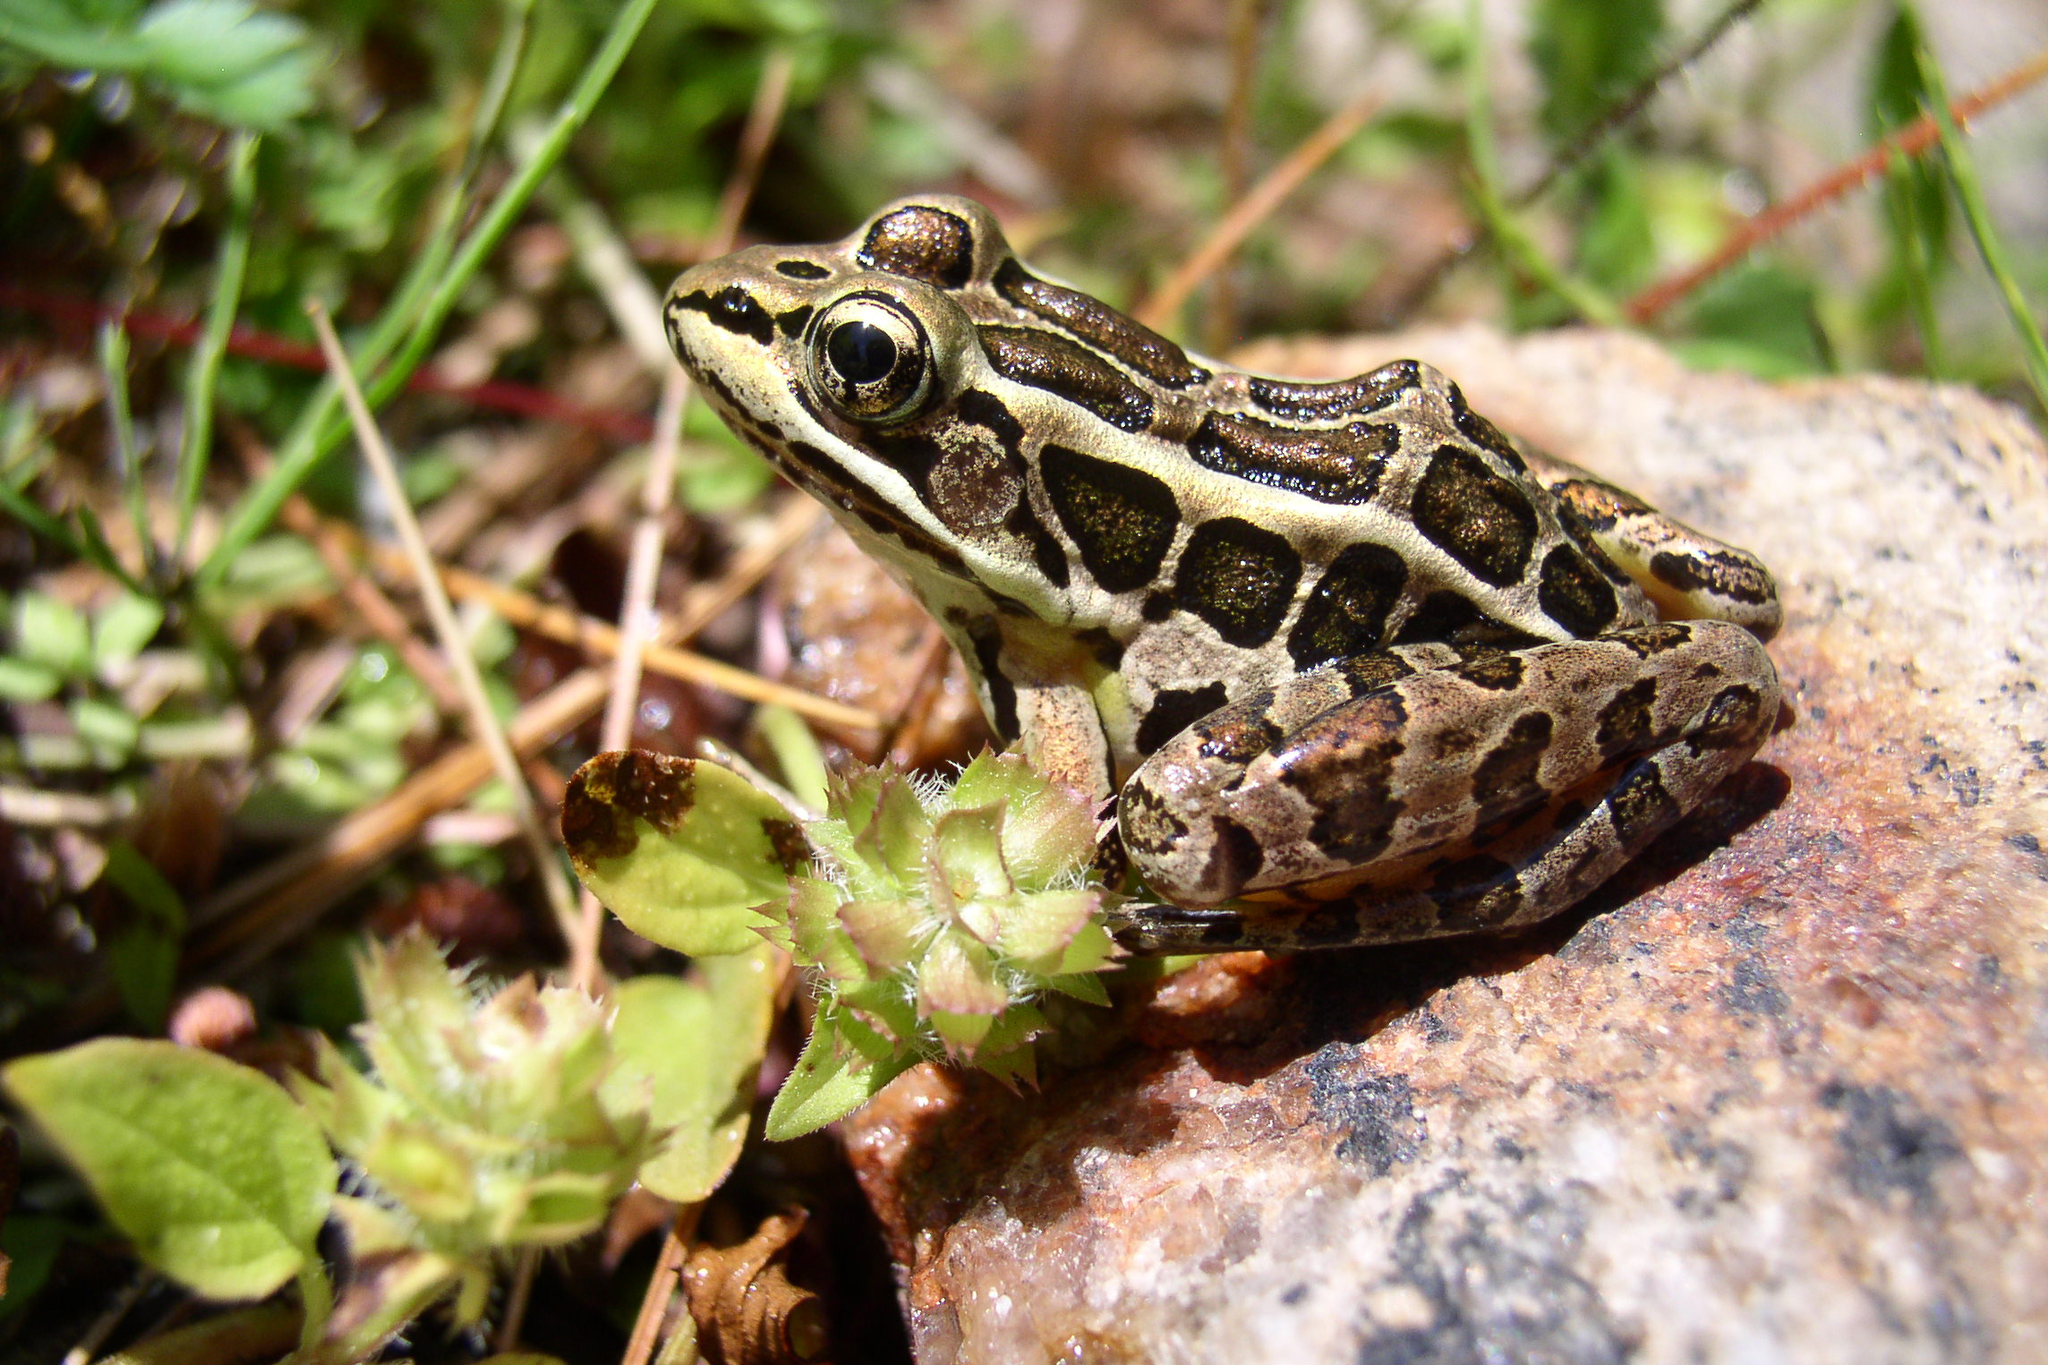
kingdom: Animalia
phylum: Chordata
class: Amphibia
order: Anura
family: Ranidae
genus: Lithobates
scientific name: Lithobates palustris
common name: Pickerel frog
